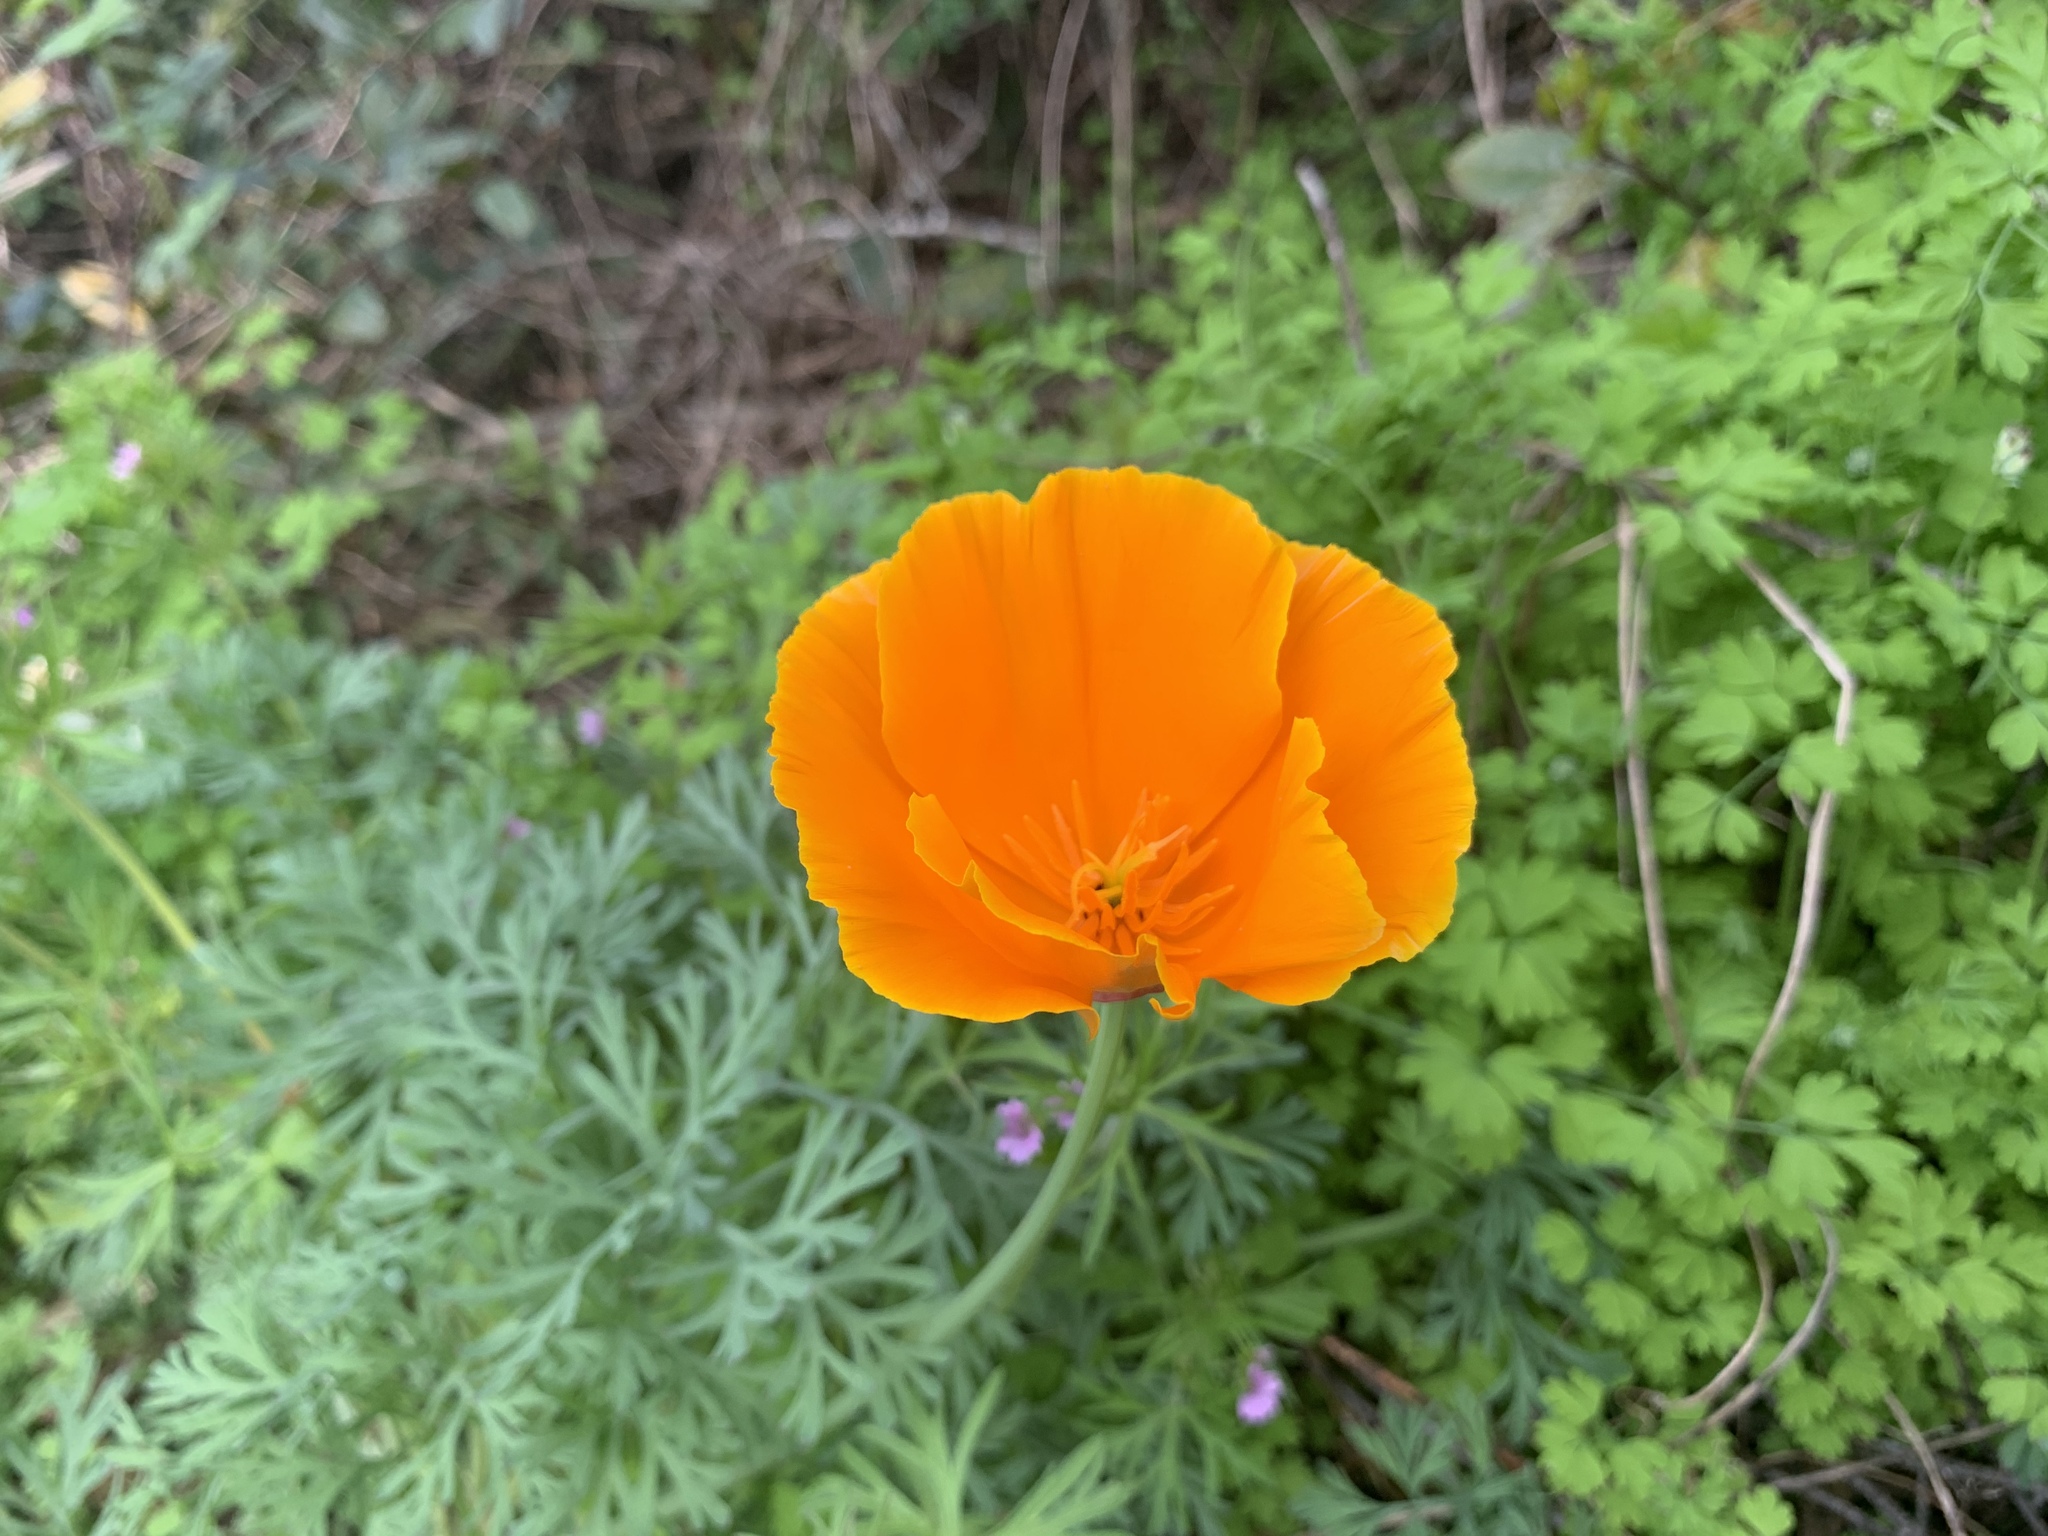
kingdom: Plantae
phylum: Tracheophyta
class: Magnoliopsida
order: Ranunculales
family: Papaveraceae
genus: Eschscholzia
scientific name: Eschscholzia californica
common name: California poppy
